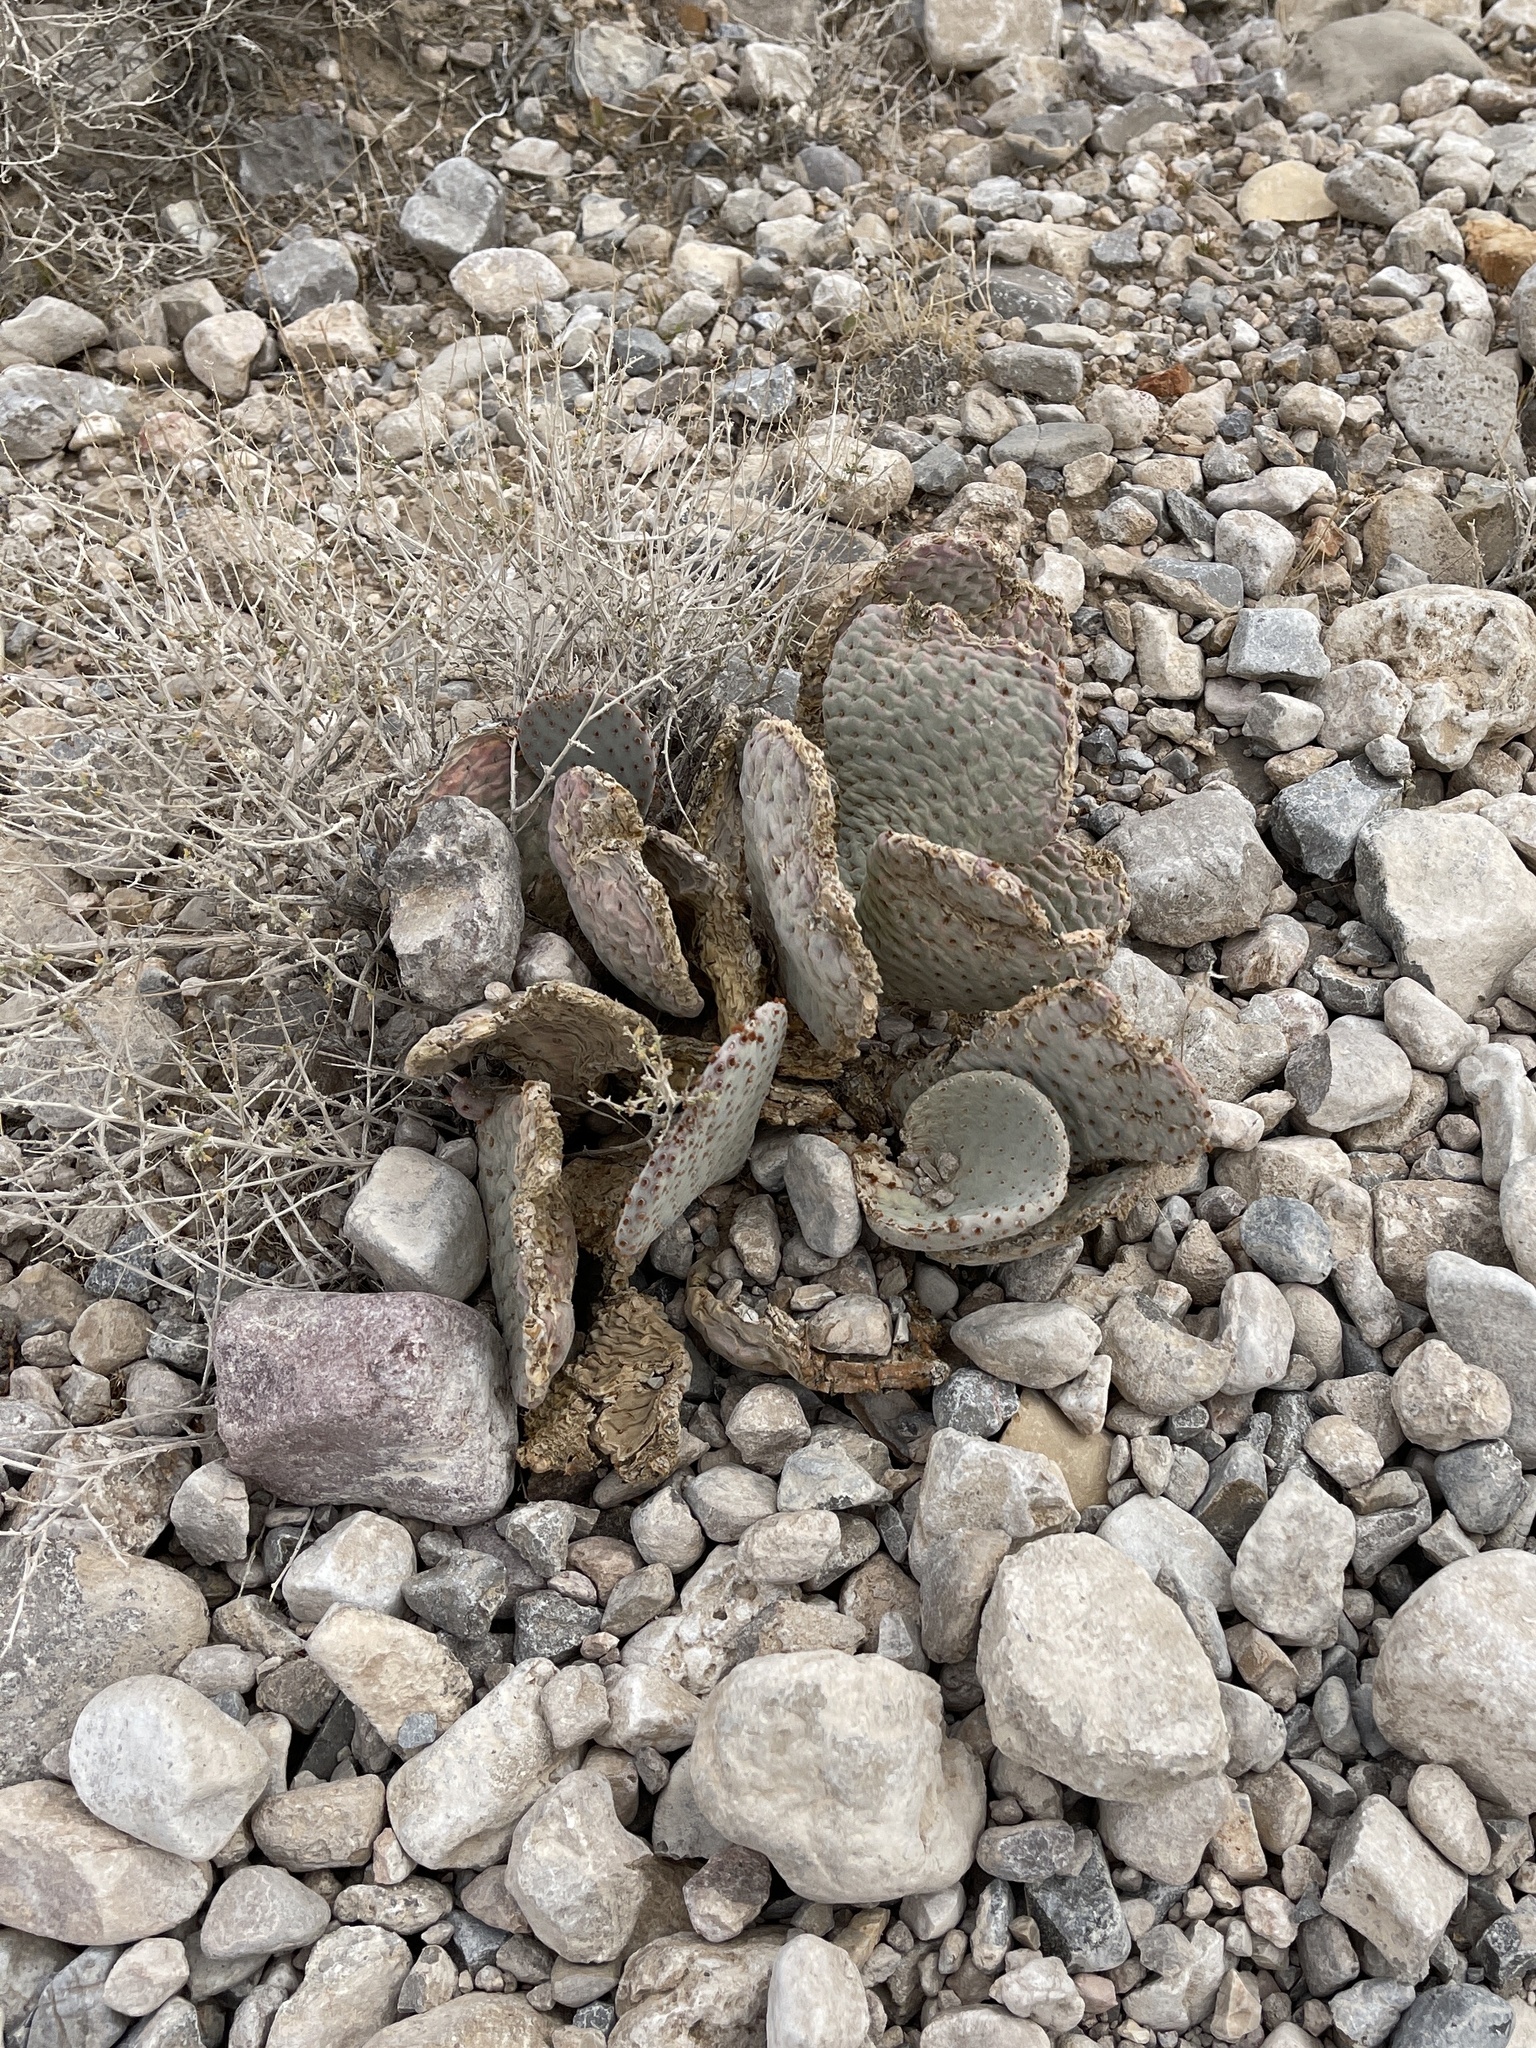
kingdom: Plantae
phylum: Tracheophyta
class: Magnoliopsida
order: Caryophyllales
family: Cactaceae
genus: Opuntia
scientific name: Opuntia basilaris
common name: Beavertail prickly-pear
